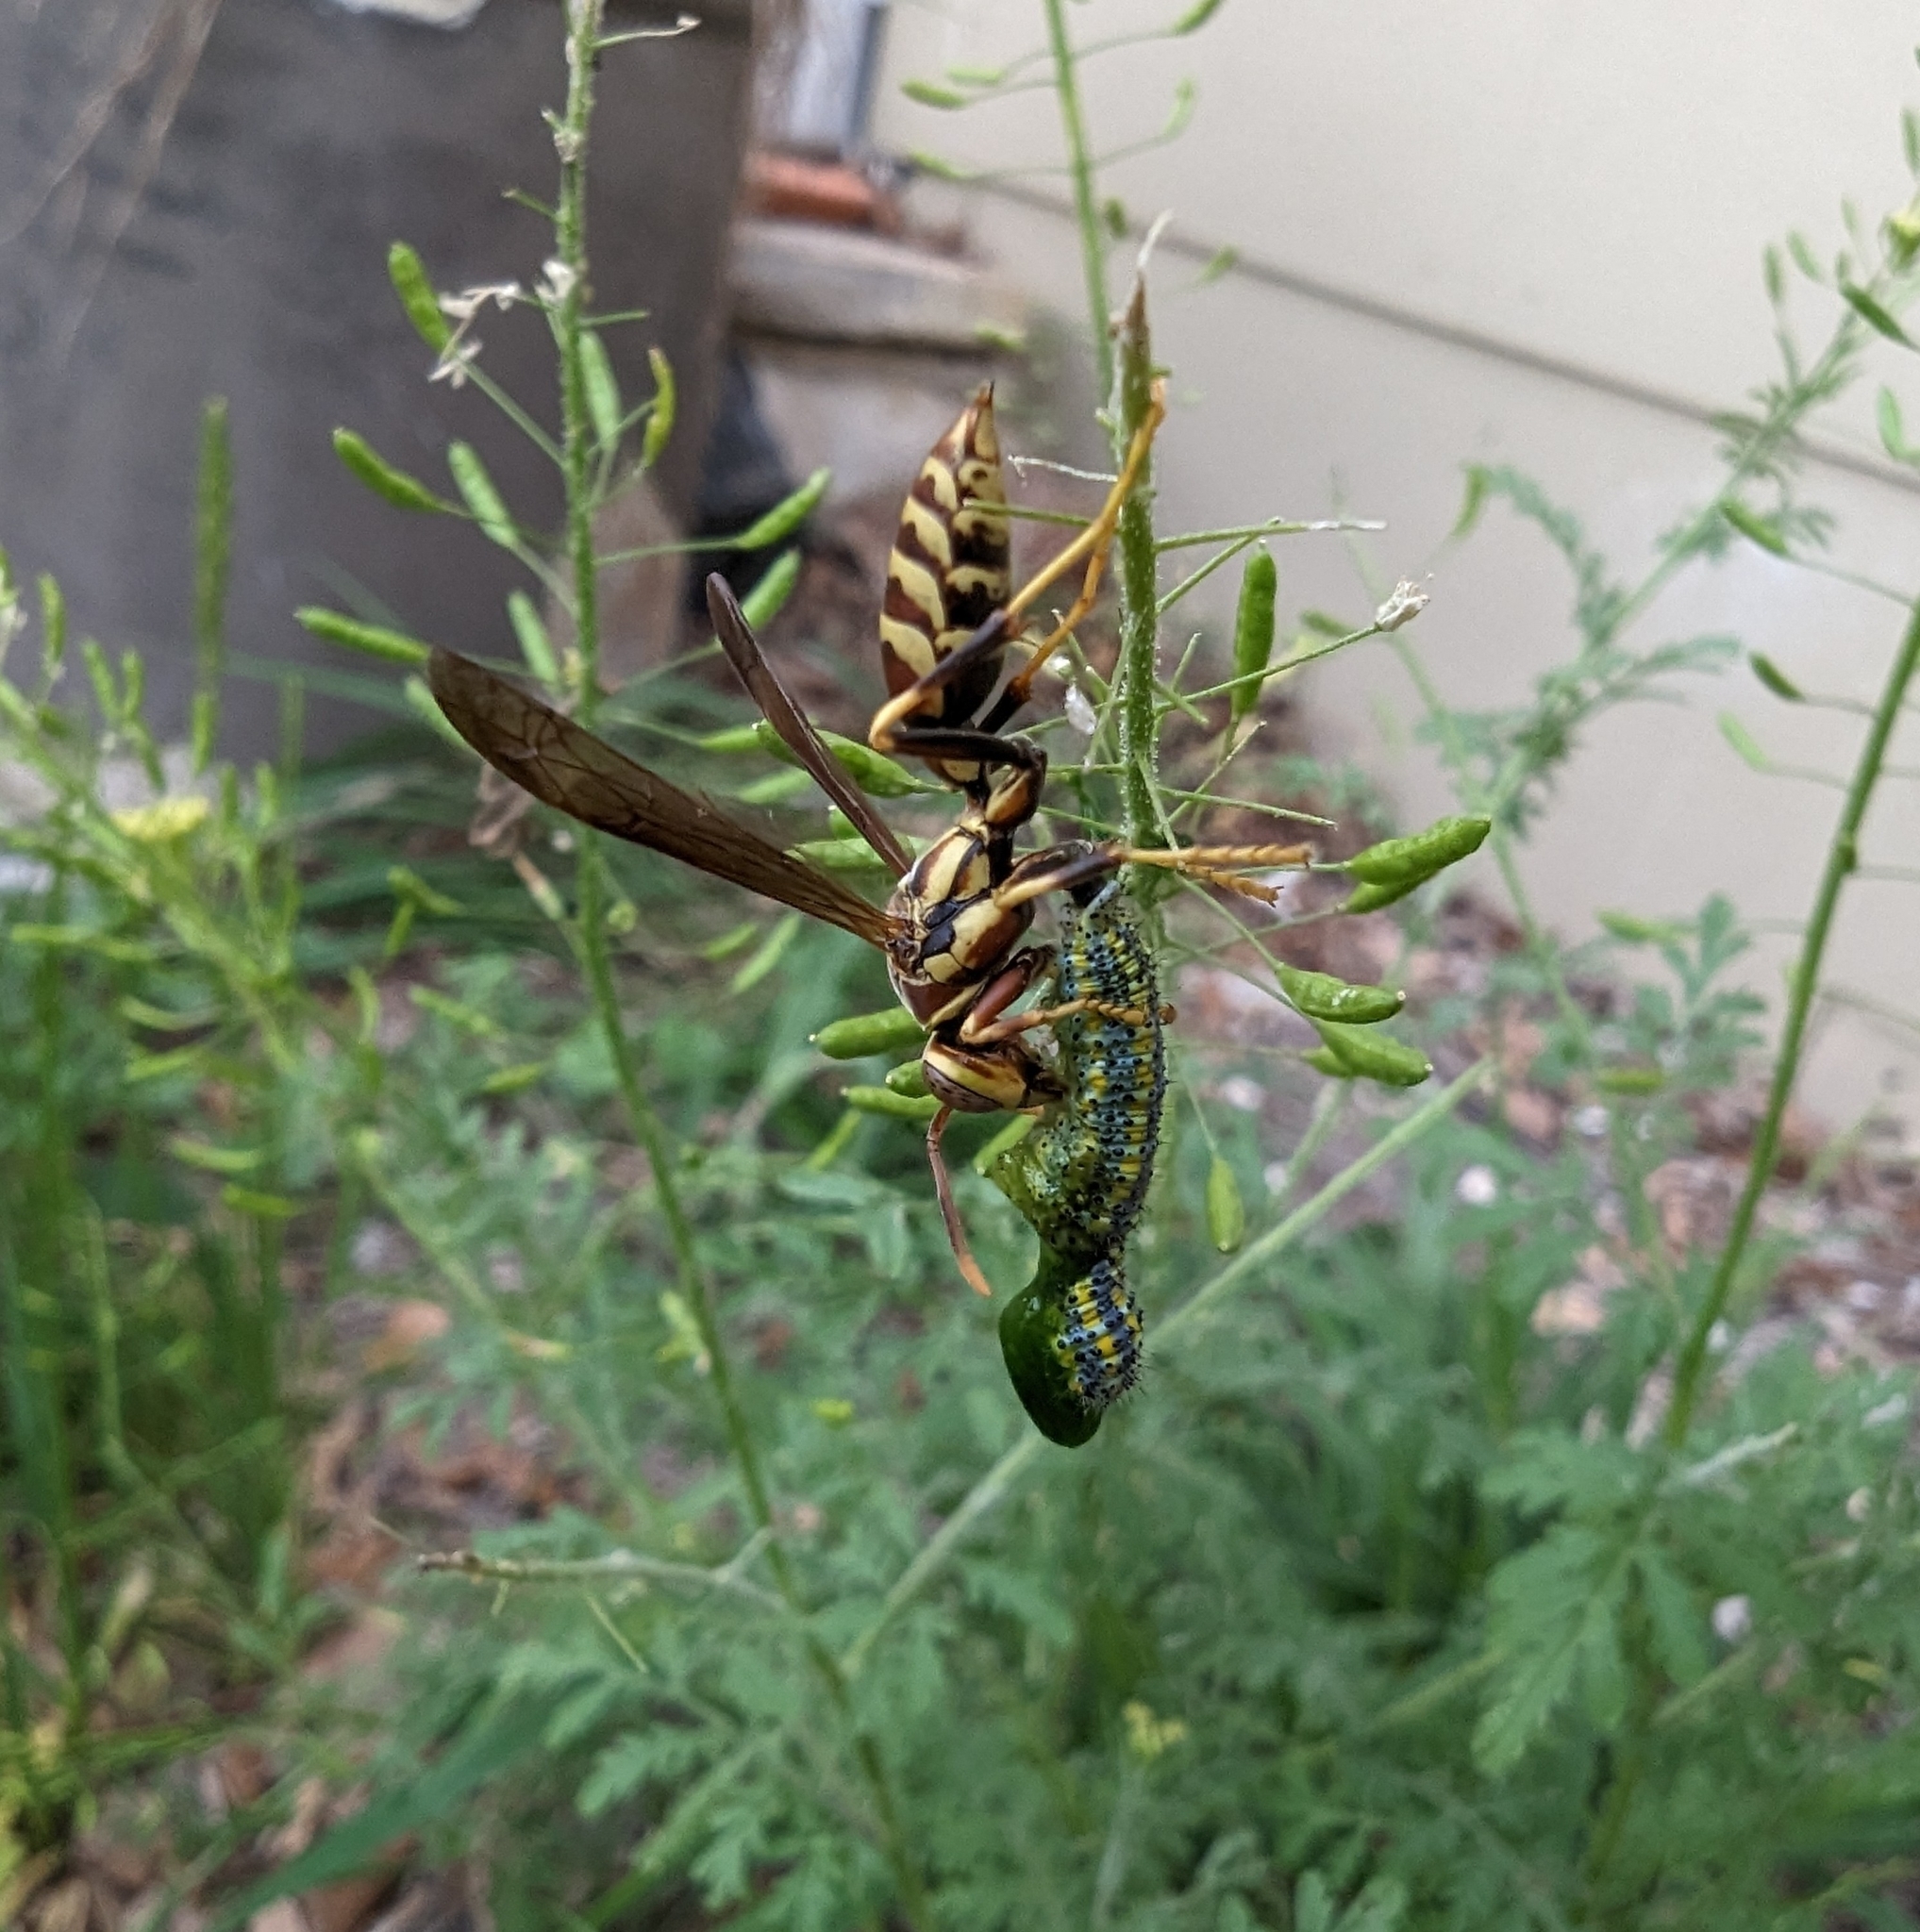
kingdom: Animalia
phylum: Arthropoda
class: Insecta
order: Hymenoptera
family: Eumenidae
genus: Polistes
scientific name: Polistes exclamans
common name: Paper wasp
